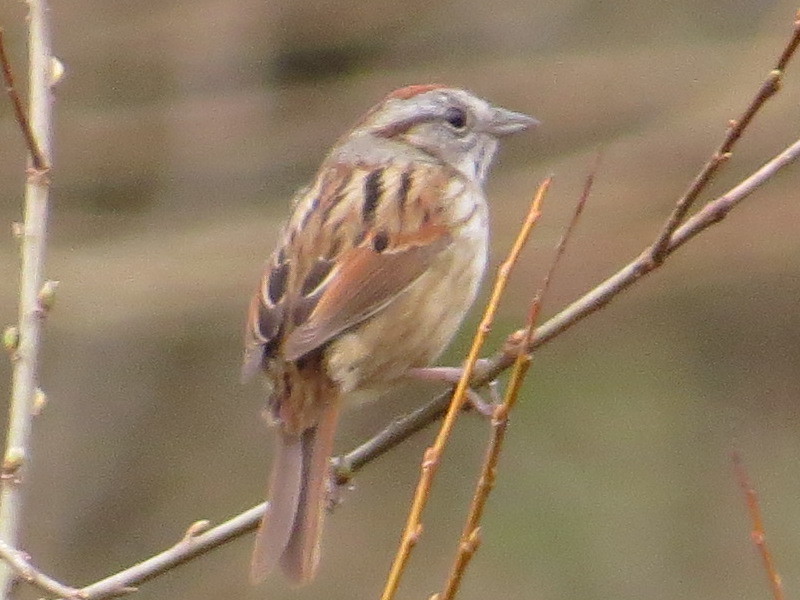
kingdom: Animalia
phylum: Chordata
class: Aves
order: Passeriformes
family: Passerellidae
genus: Melospiza
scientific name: Melospiza georgiana
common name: Swamp sparrow
